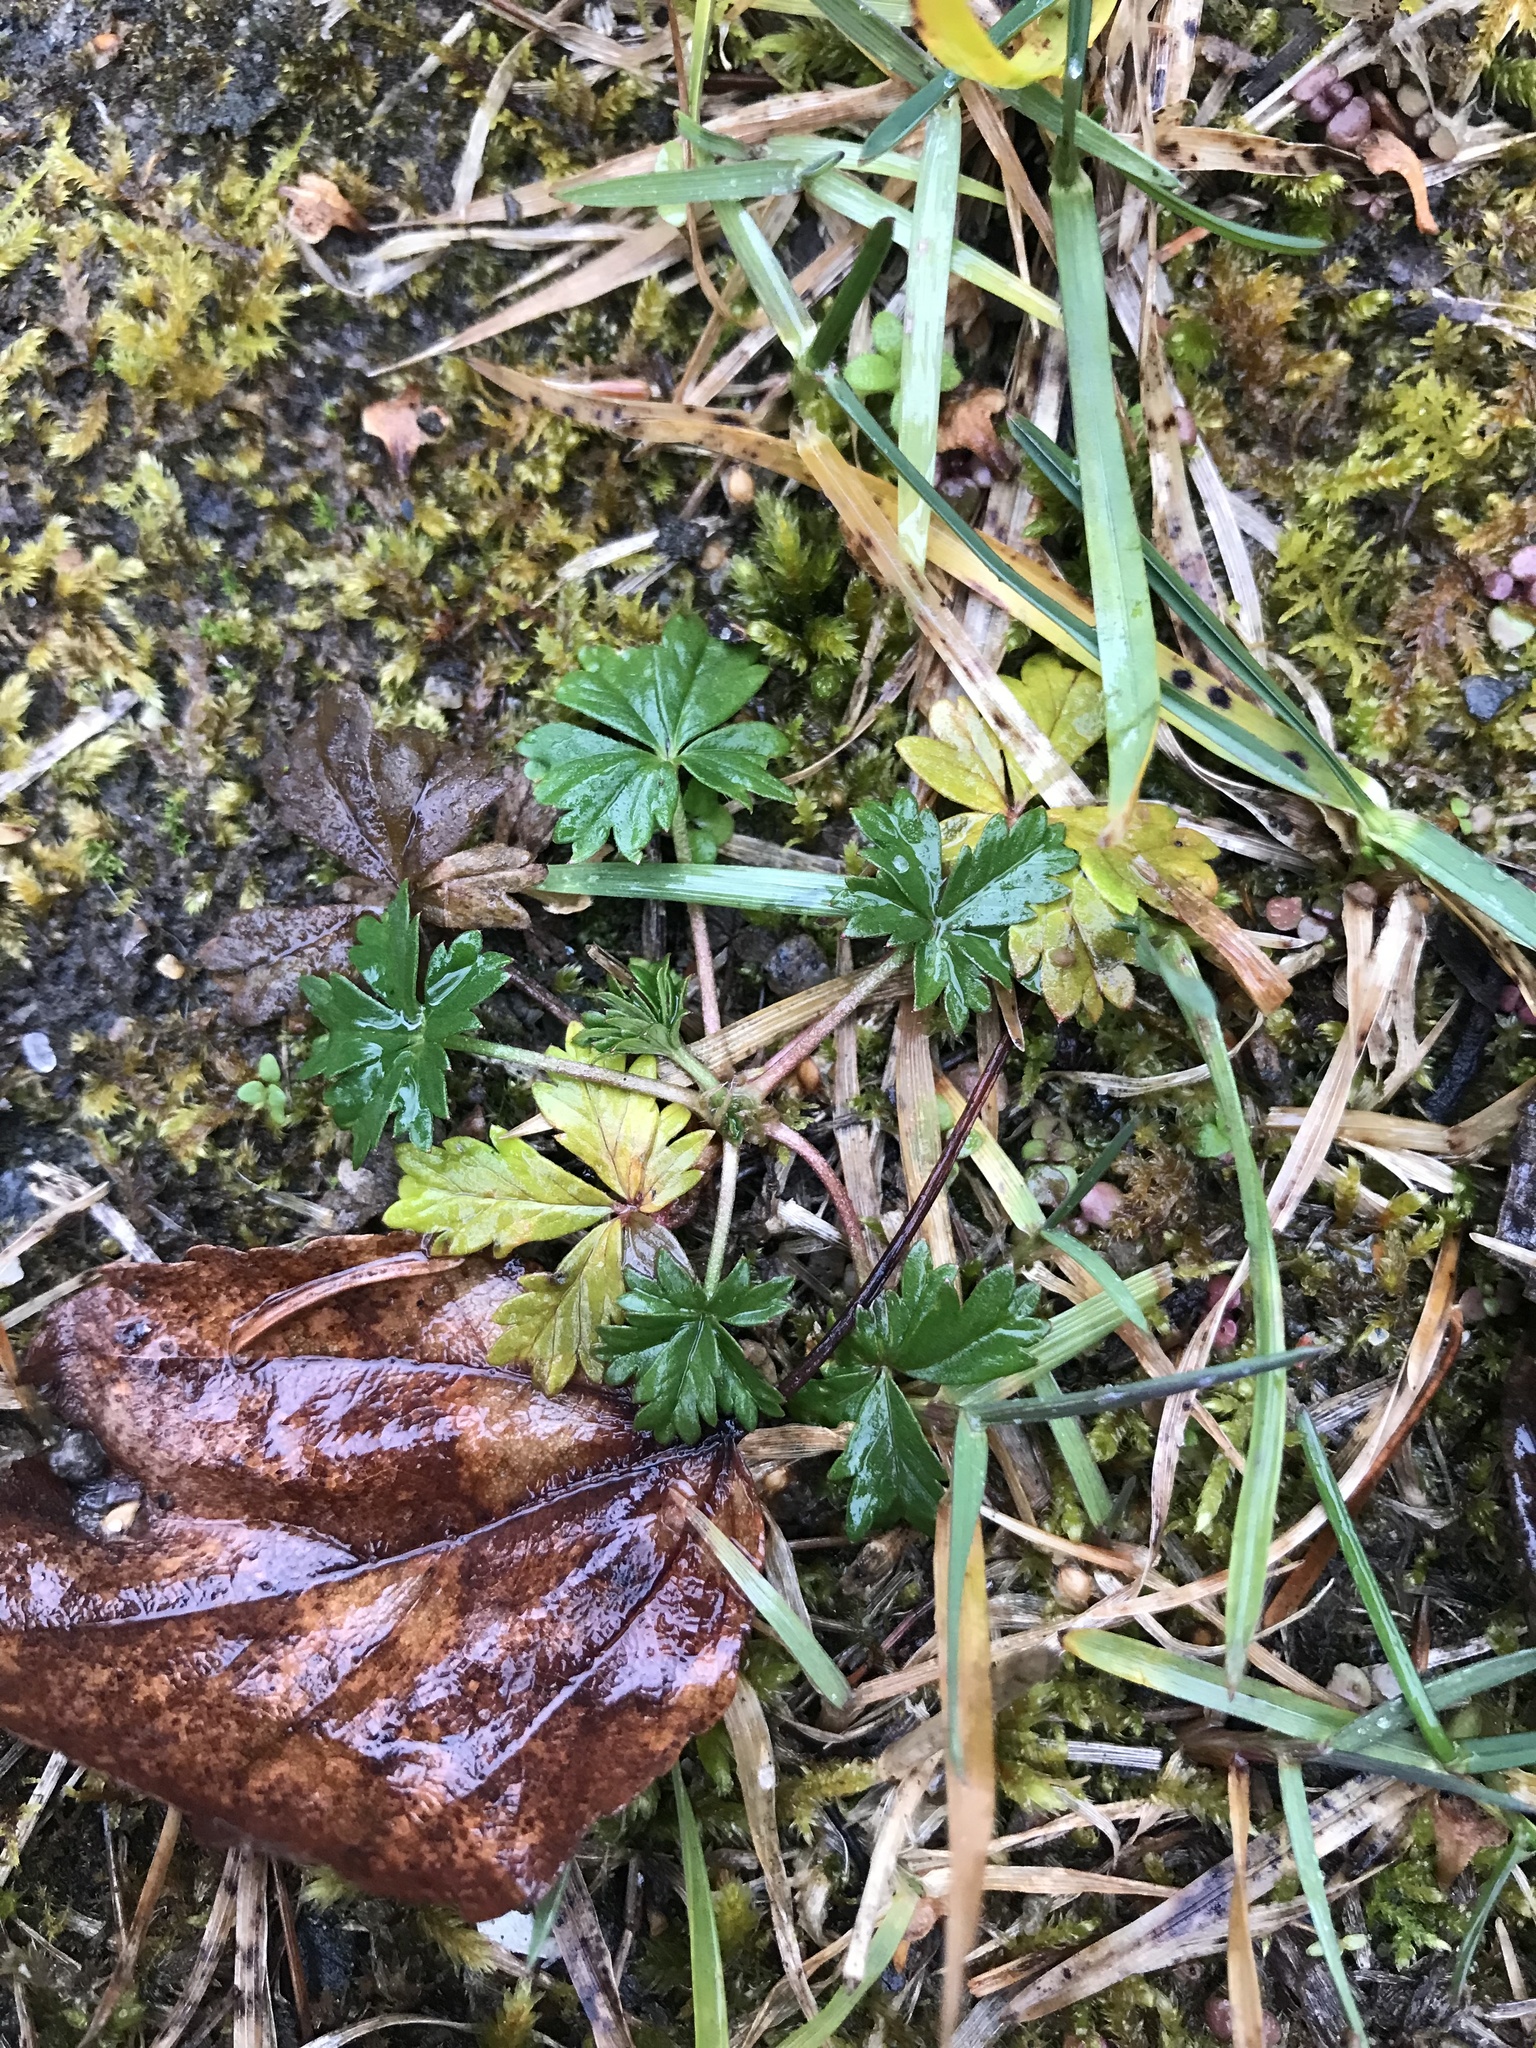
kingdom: Plantae
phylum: Tracheophyta
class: Magnoliopsida
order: Rosales
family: Rosaceae
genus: Potentilla
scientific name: Potentilla argentea
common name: Hoary cinquefoil
